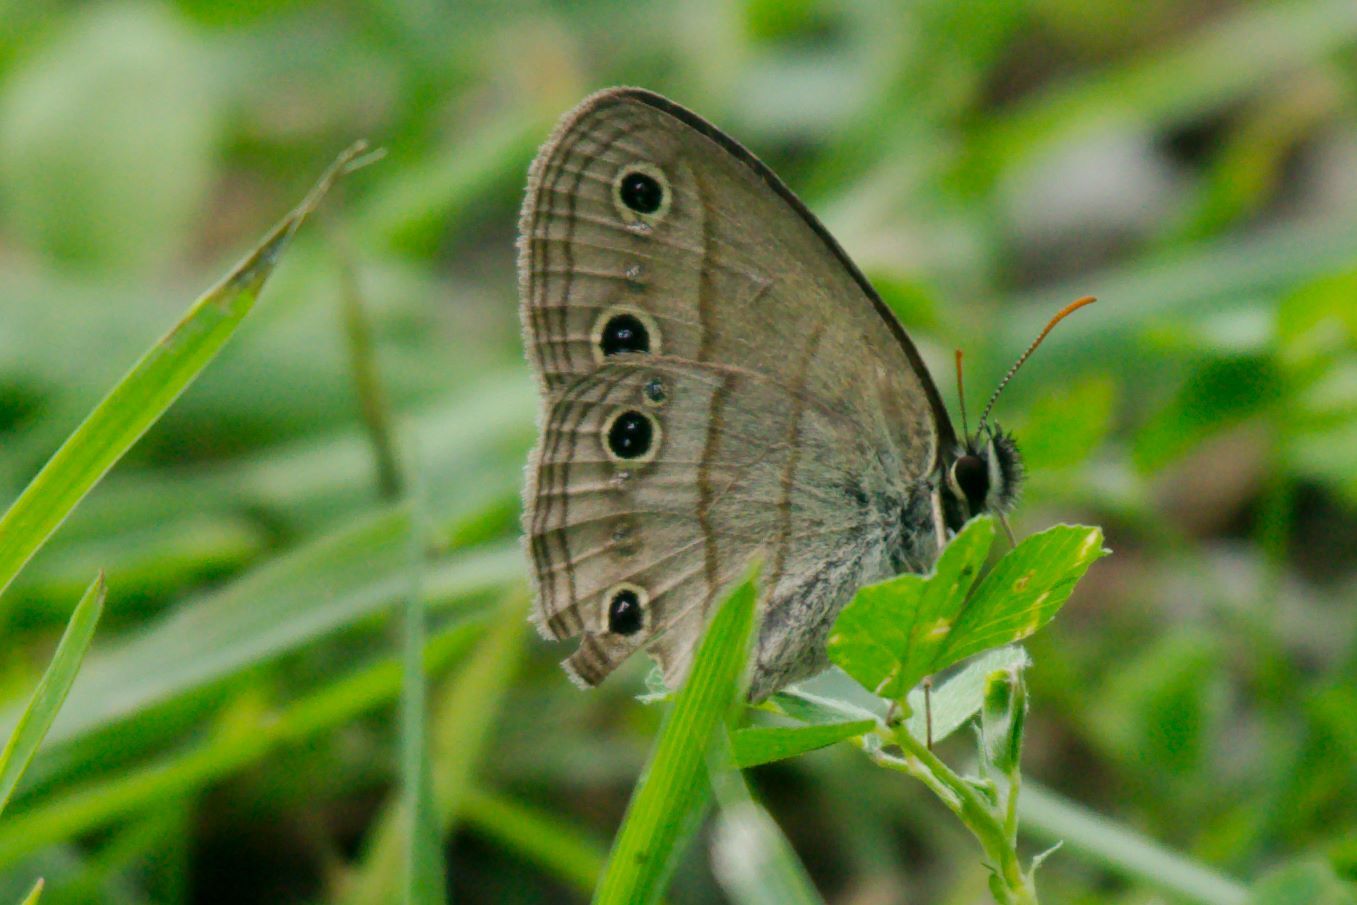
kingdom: Animalia
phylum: Arthropoda
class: Insecta
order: Lepidoptera
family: Nymphalidae
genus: Euptychia
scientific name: Euptychia cymela
